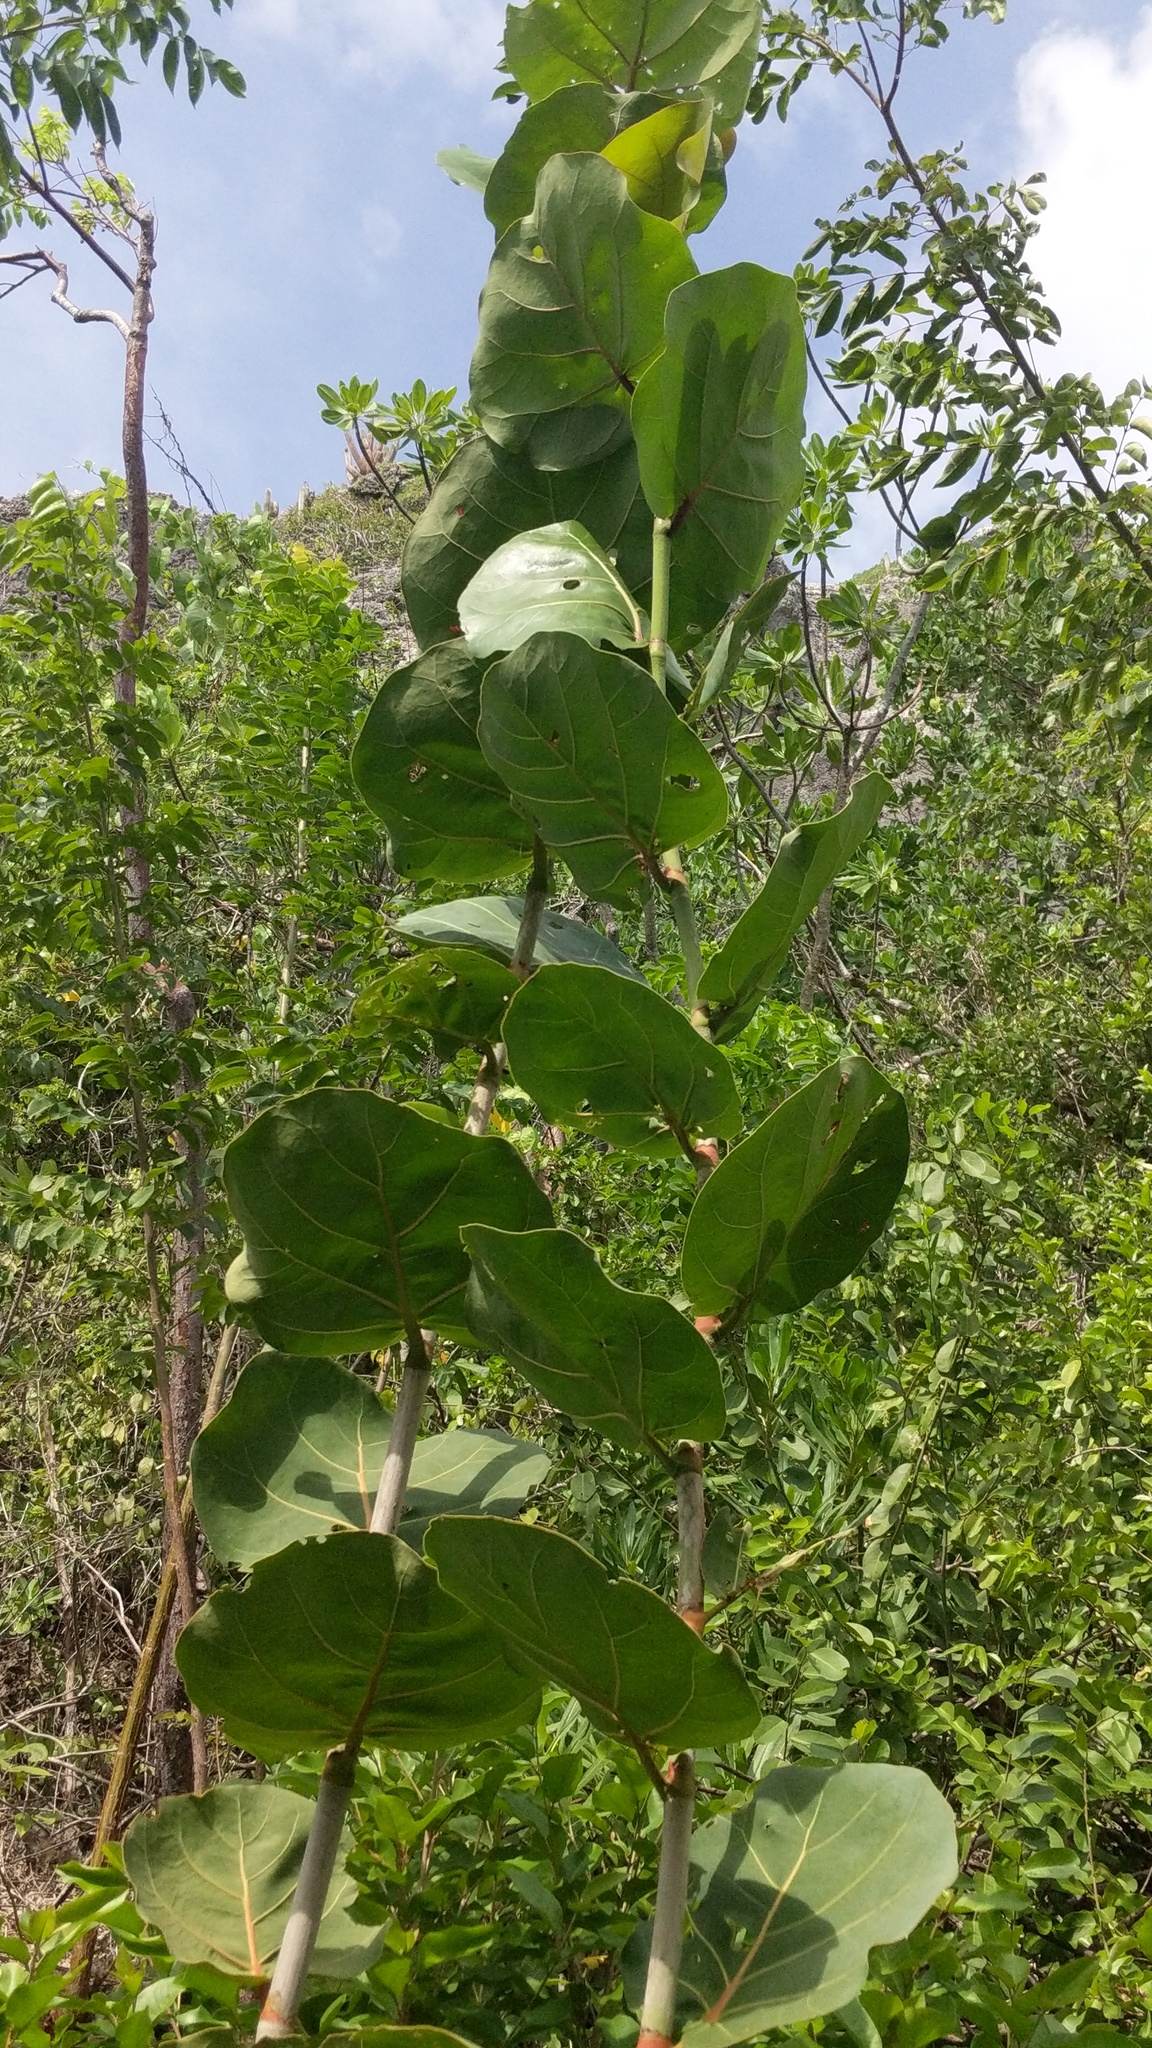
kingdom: Plantae
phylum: Tracheophyta
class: Magnoliopsida
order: Caryophyllales
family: Polygonaceae
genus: Coccoloba
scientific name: Coccoloba uvifera
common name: Seagrape
